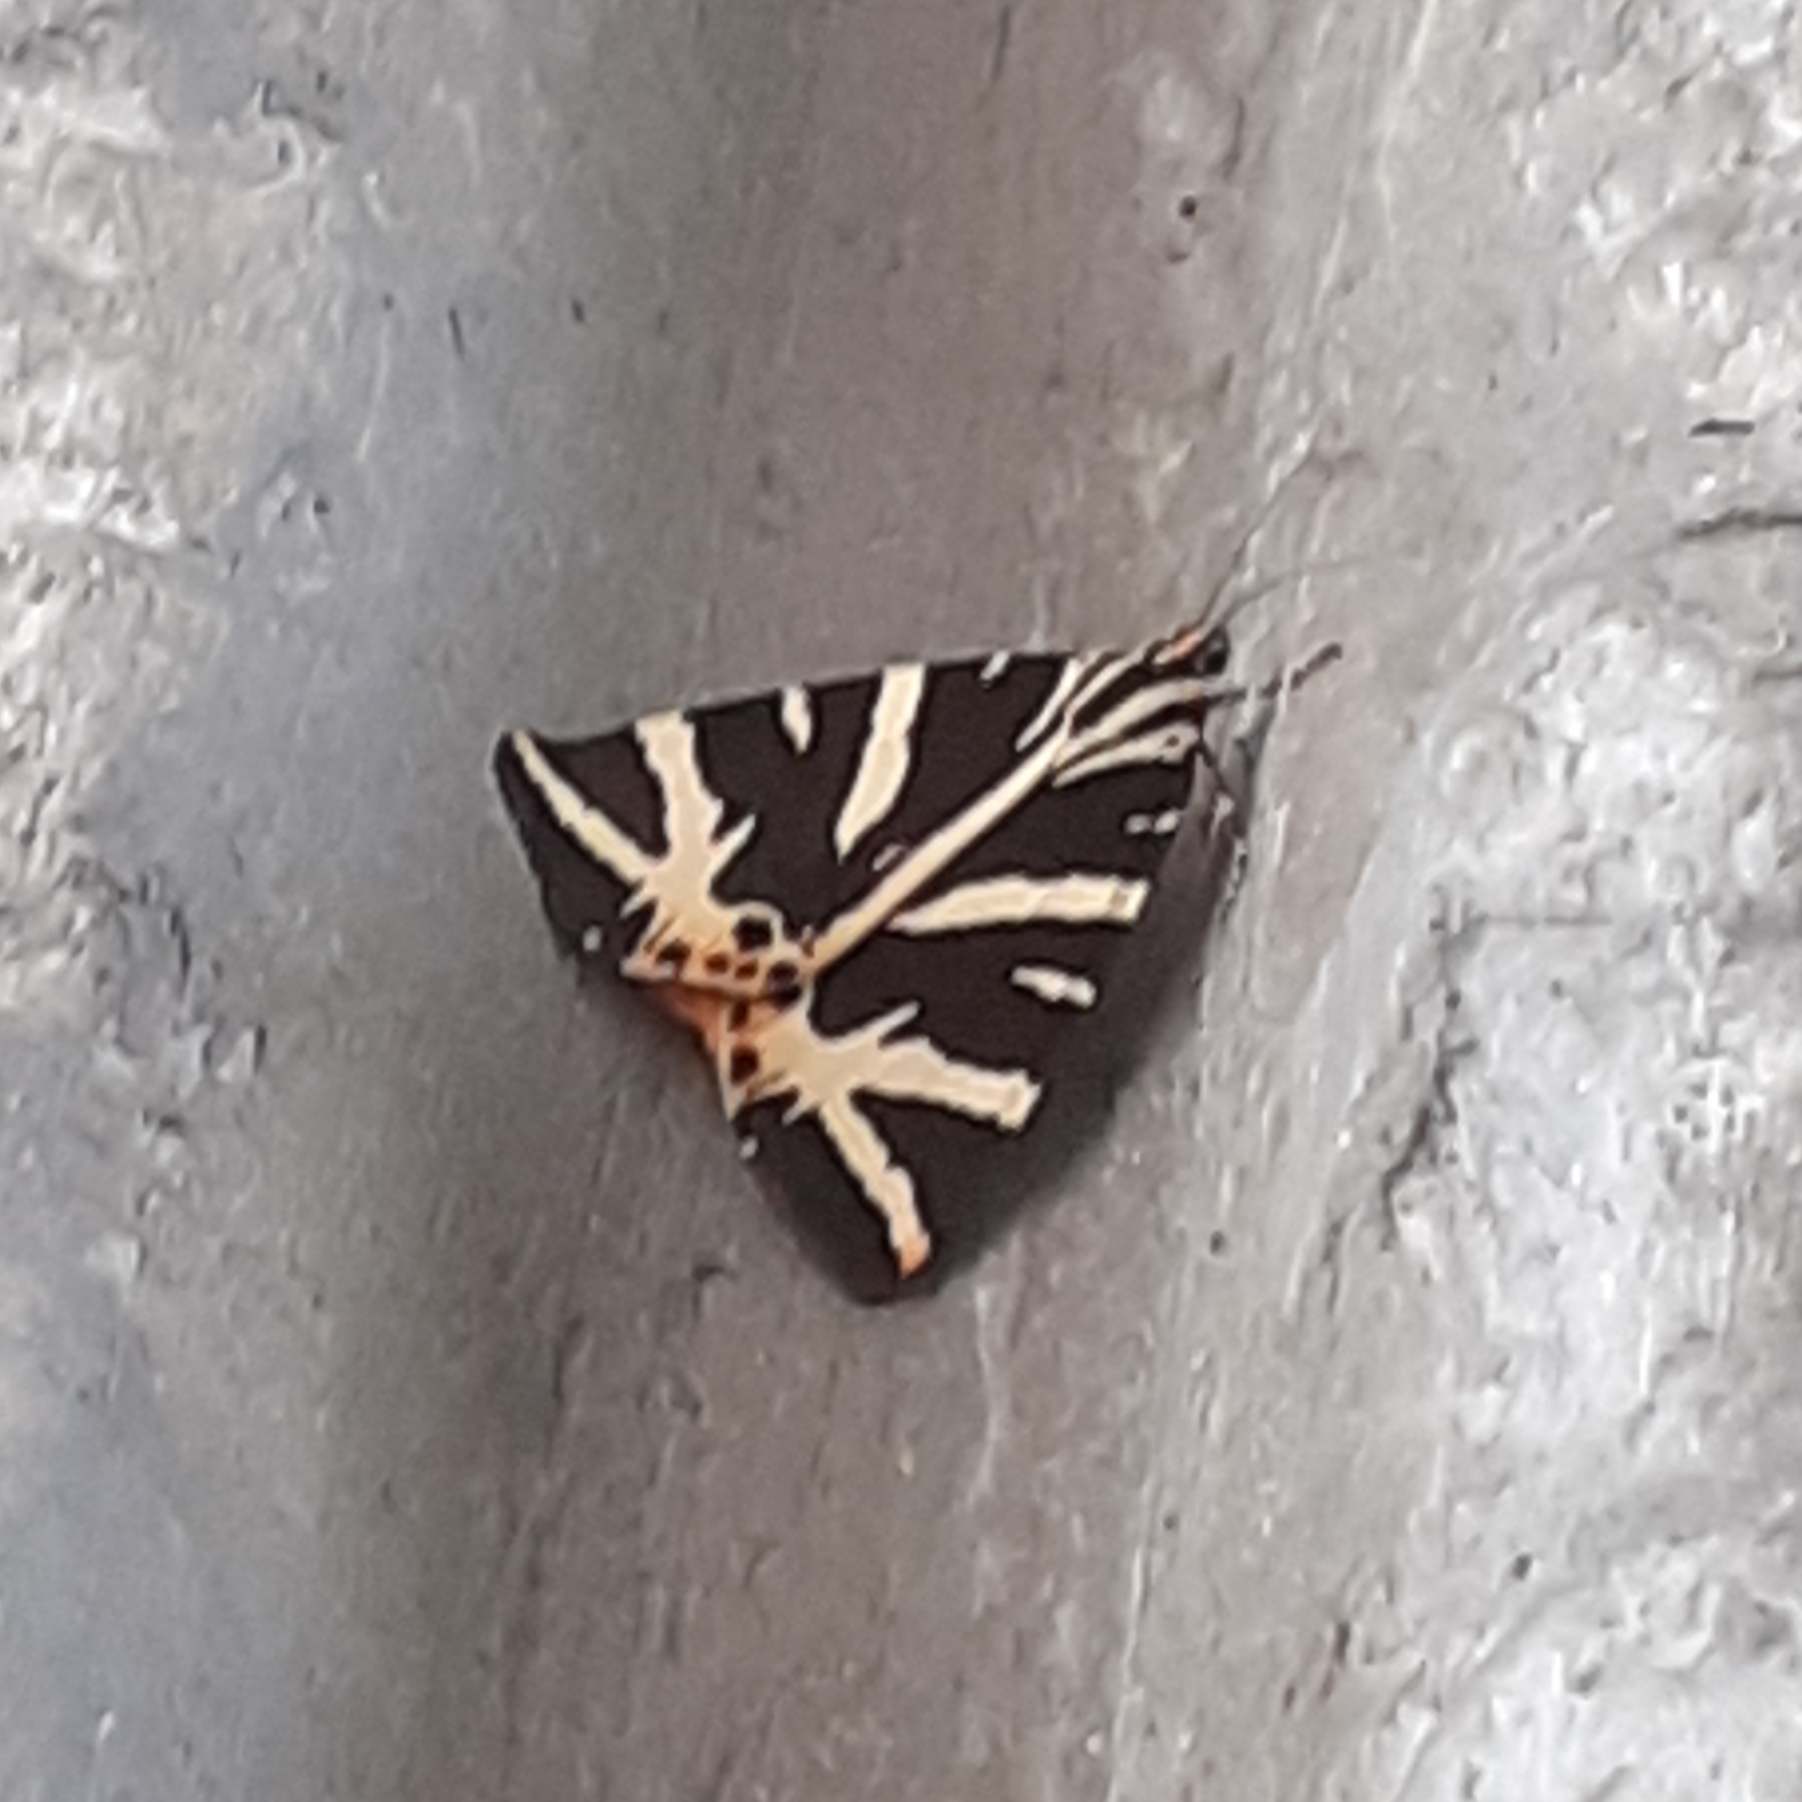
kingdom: Animalia
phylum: Arthropoda
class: Insecta
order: Lepidoptera
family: Erebidae
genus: Euplagia
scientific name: Euplagia quadripunctaria
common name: Jersey tiger
